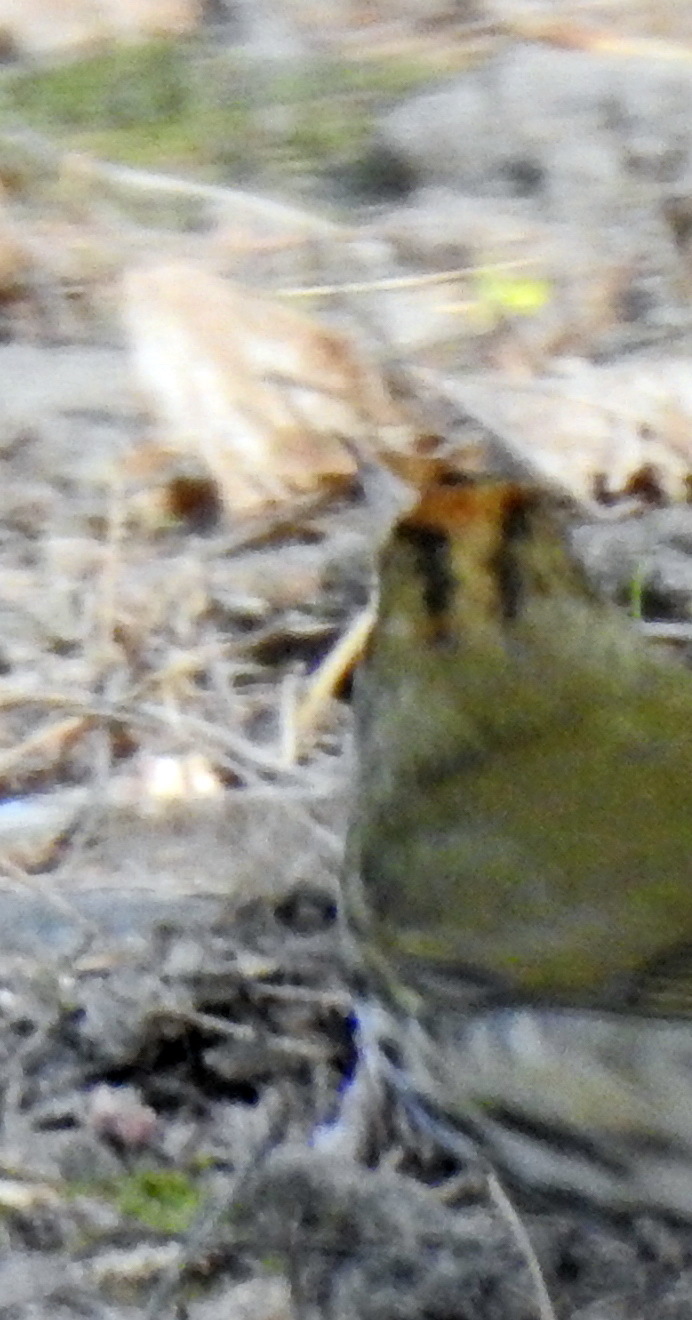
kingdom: Animalia
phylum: Chordata
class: Aves
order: Passeriformes
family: Parulidae
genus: Seiurus
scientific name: Seiurus aurocapilla
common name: Ovenbird
